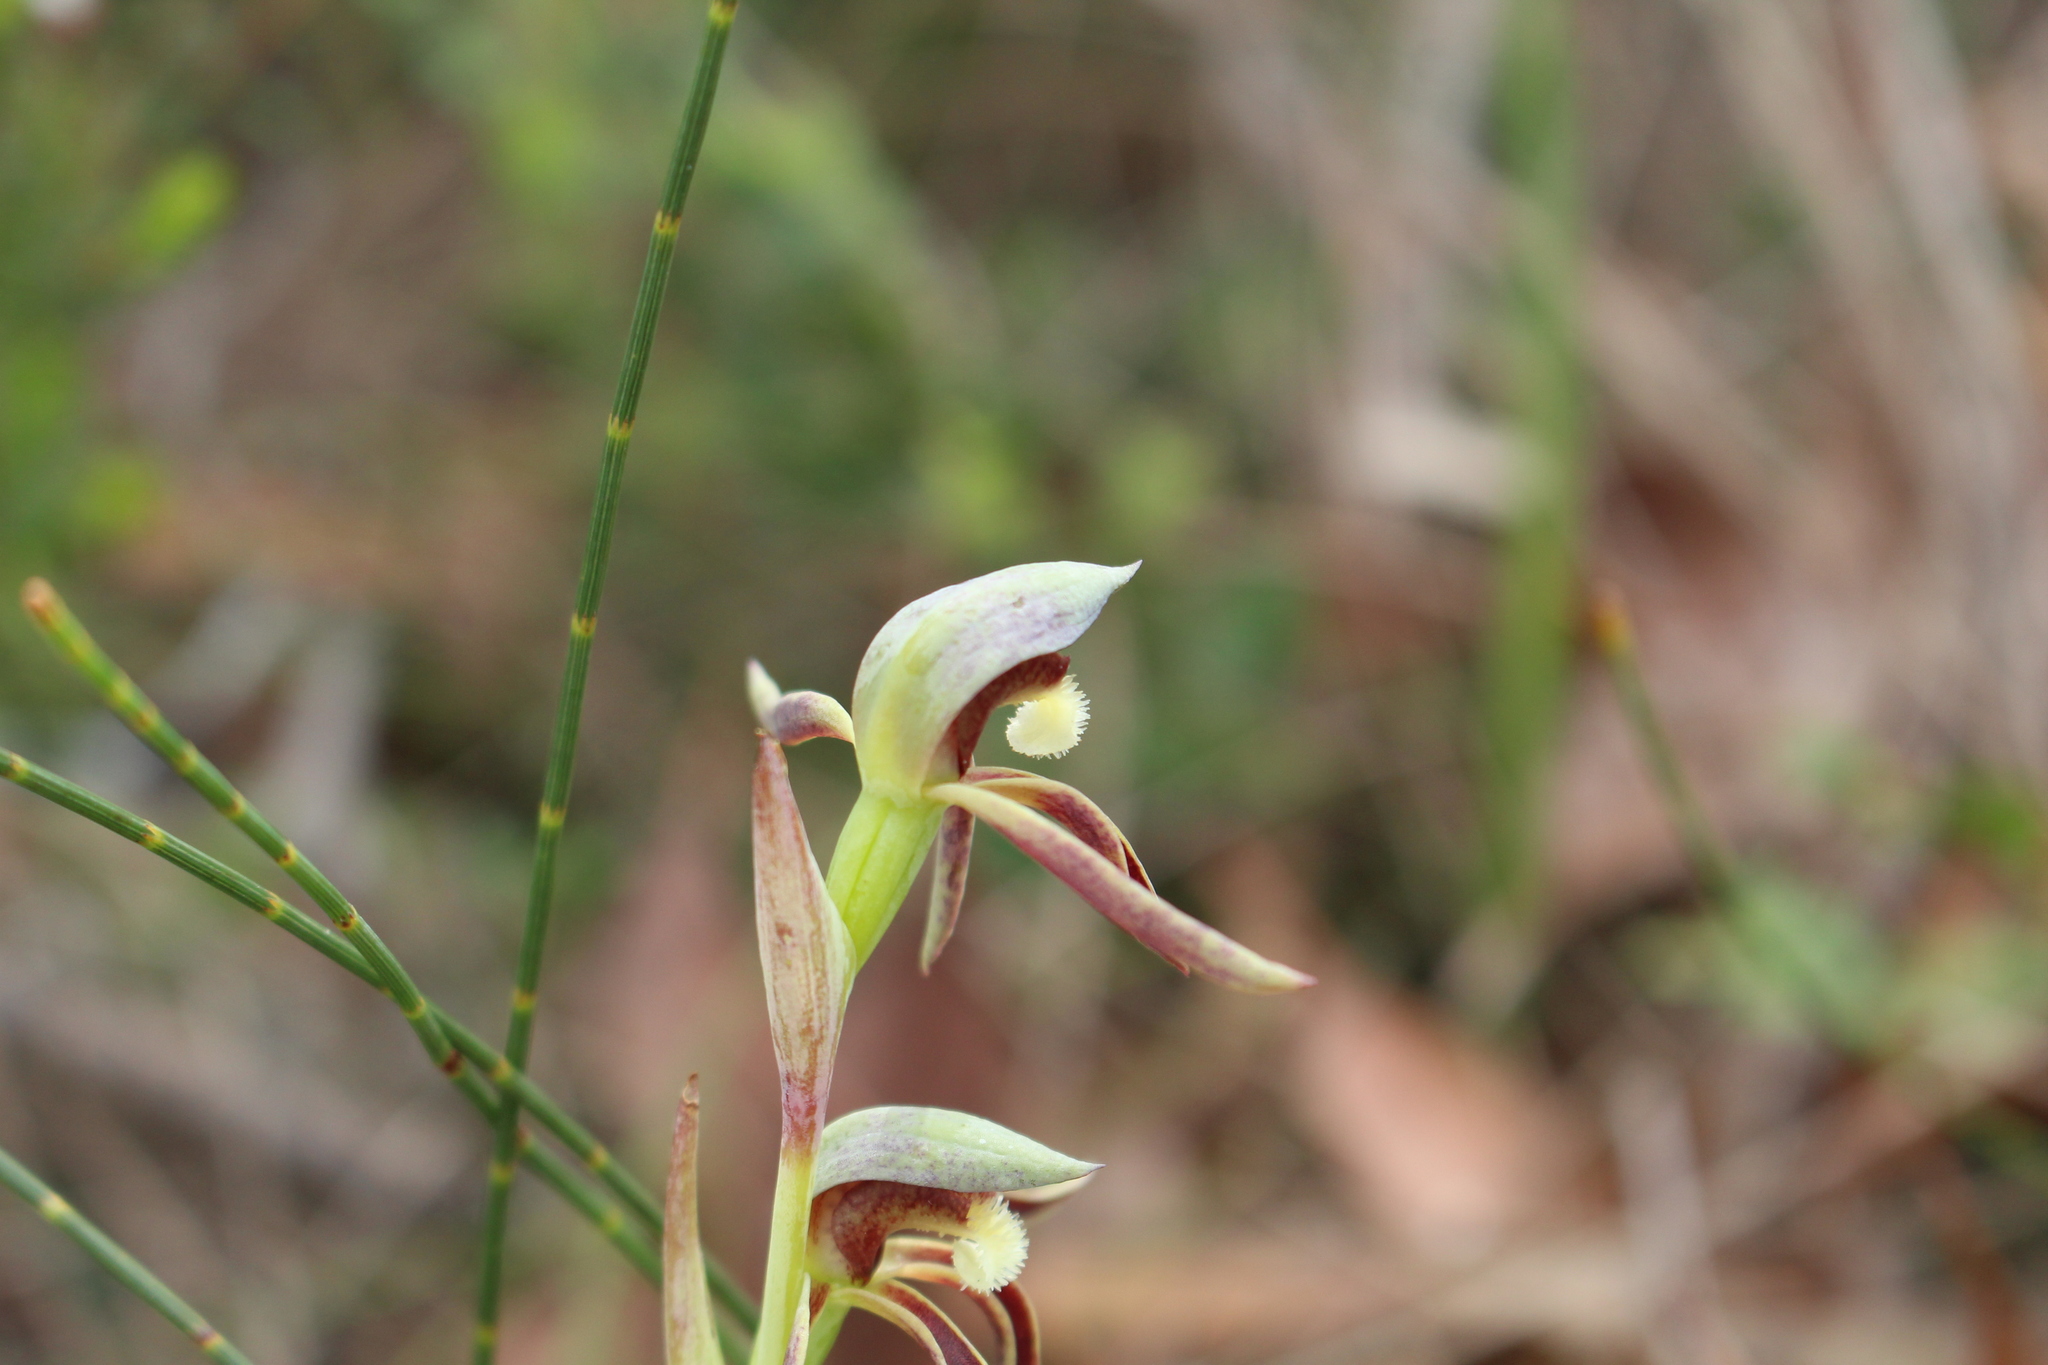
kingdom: Plantae
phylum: Tracheophyta
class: Liliopsida
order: Asparagales
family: Orchidaceae
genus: Lyperanthus
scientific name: Lyperanthus serratus
